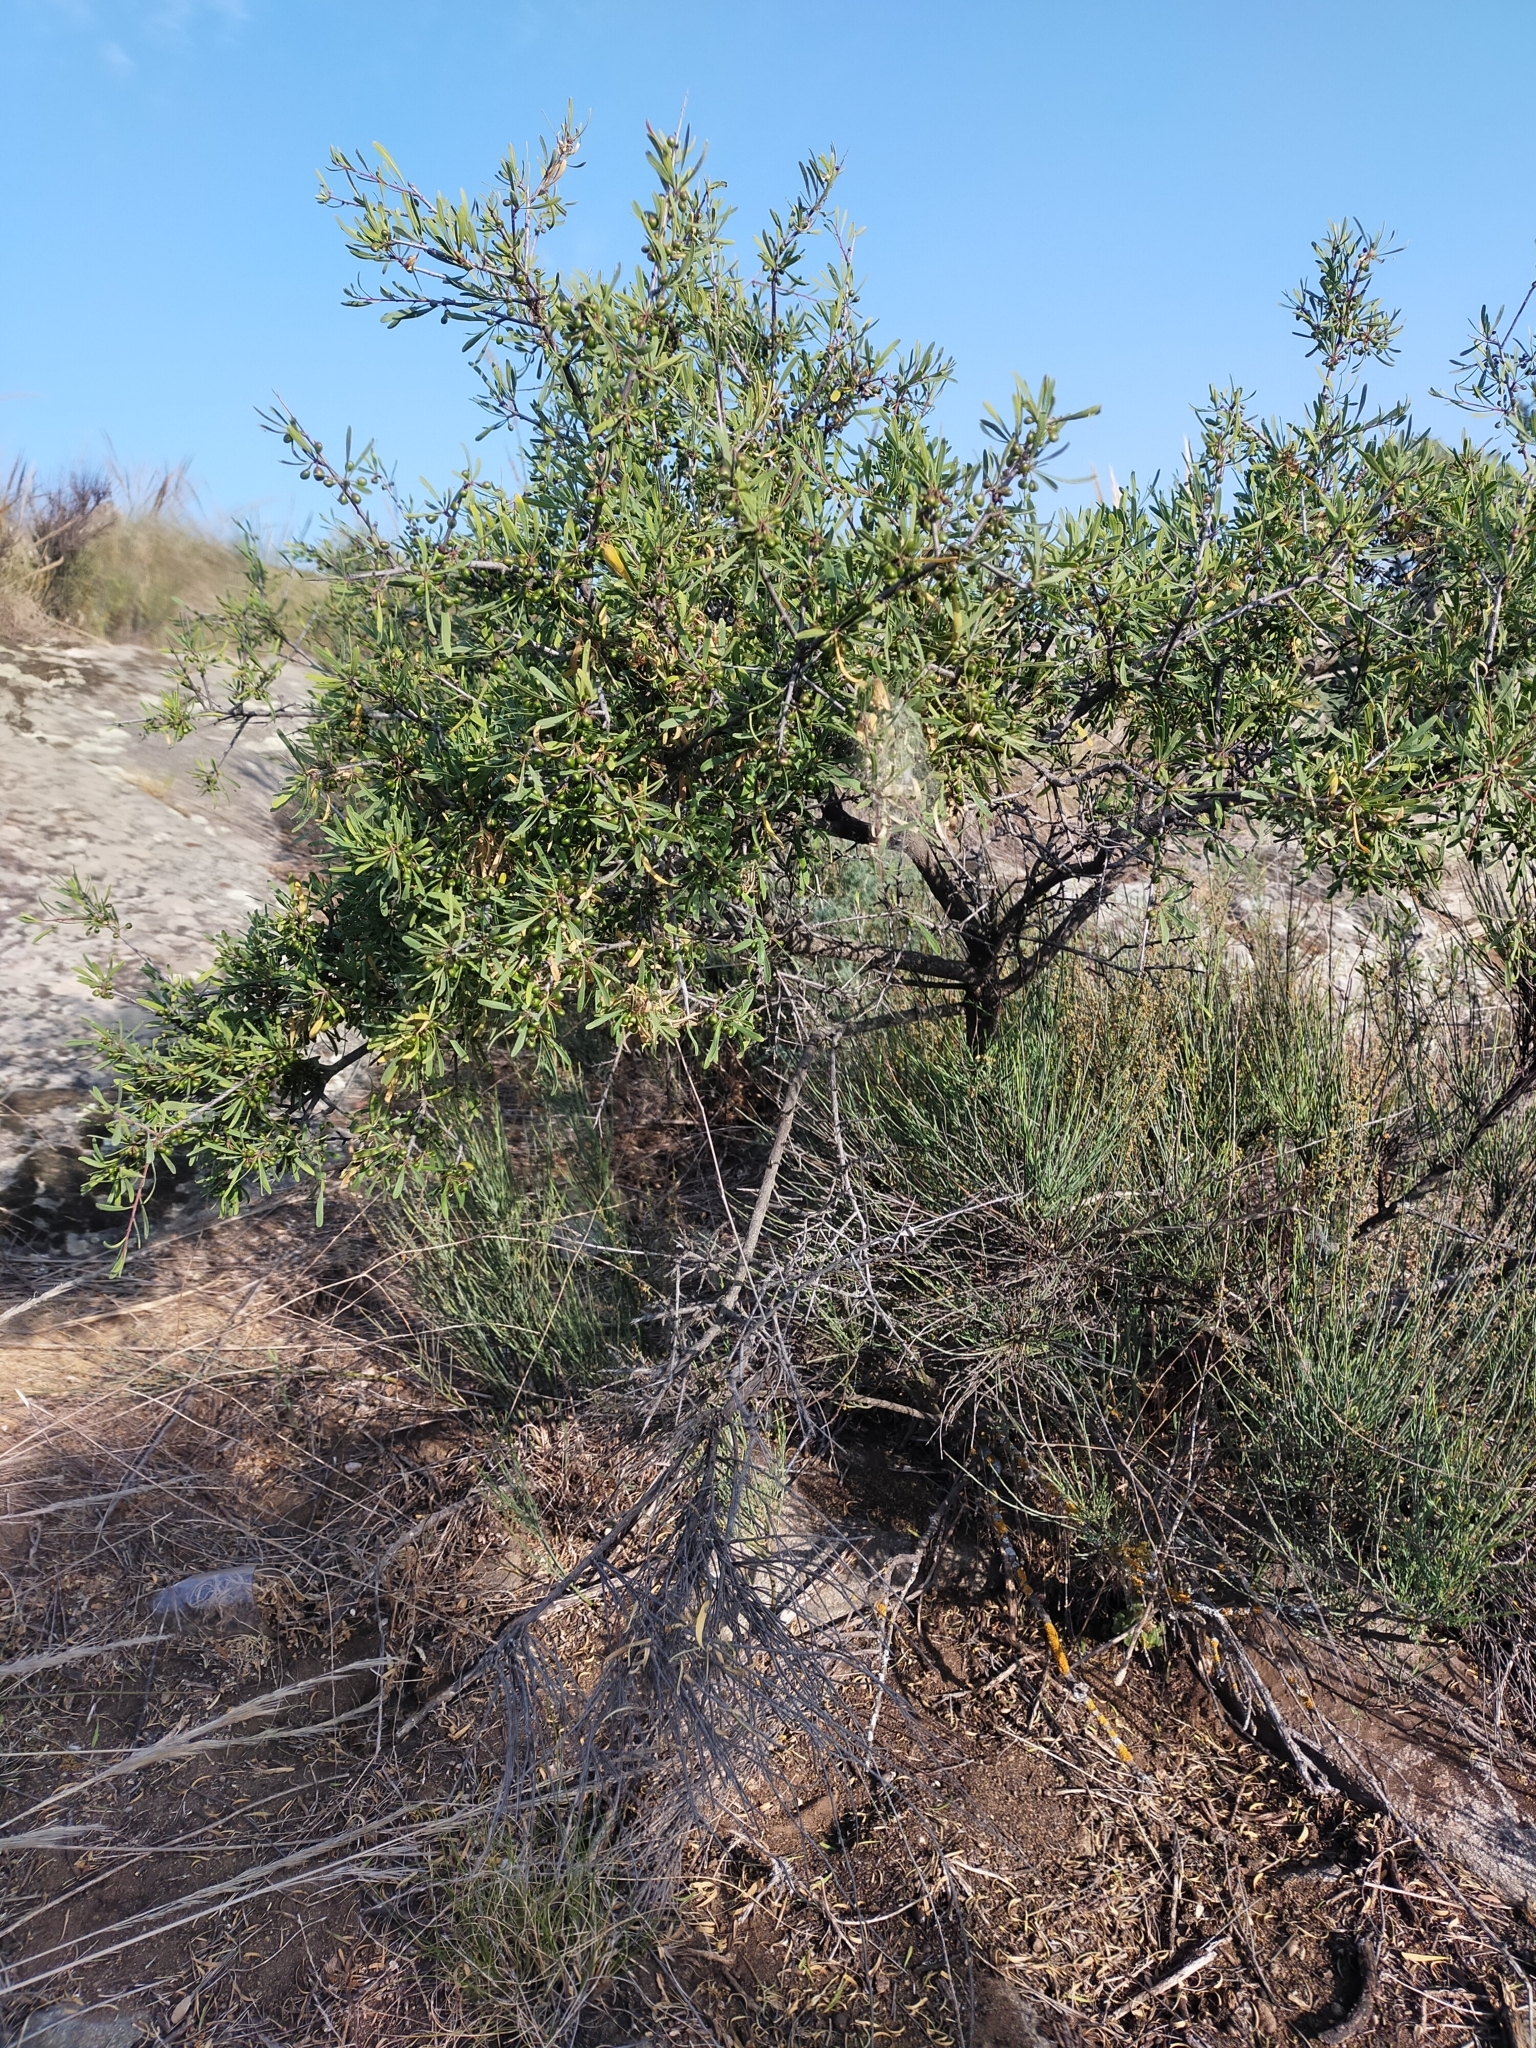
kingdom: Plantae
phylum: Tracheophyta
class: Magnoliopsida
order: Rosales
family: Rhamnaceae
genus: Rhamnus
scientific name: Rhamnus lycioides
